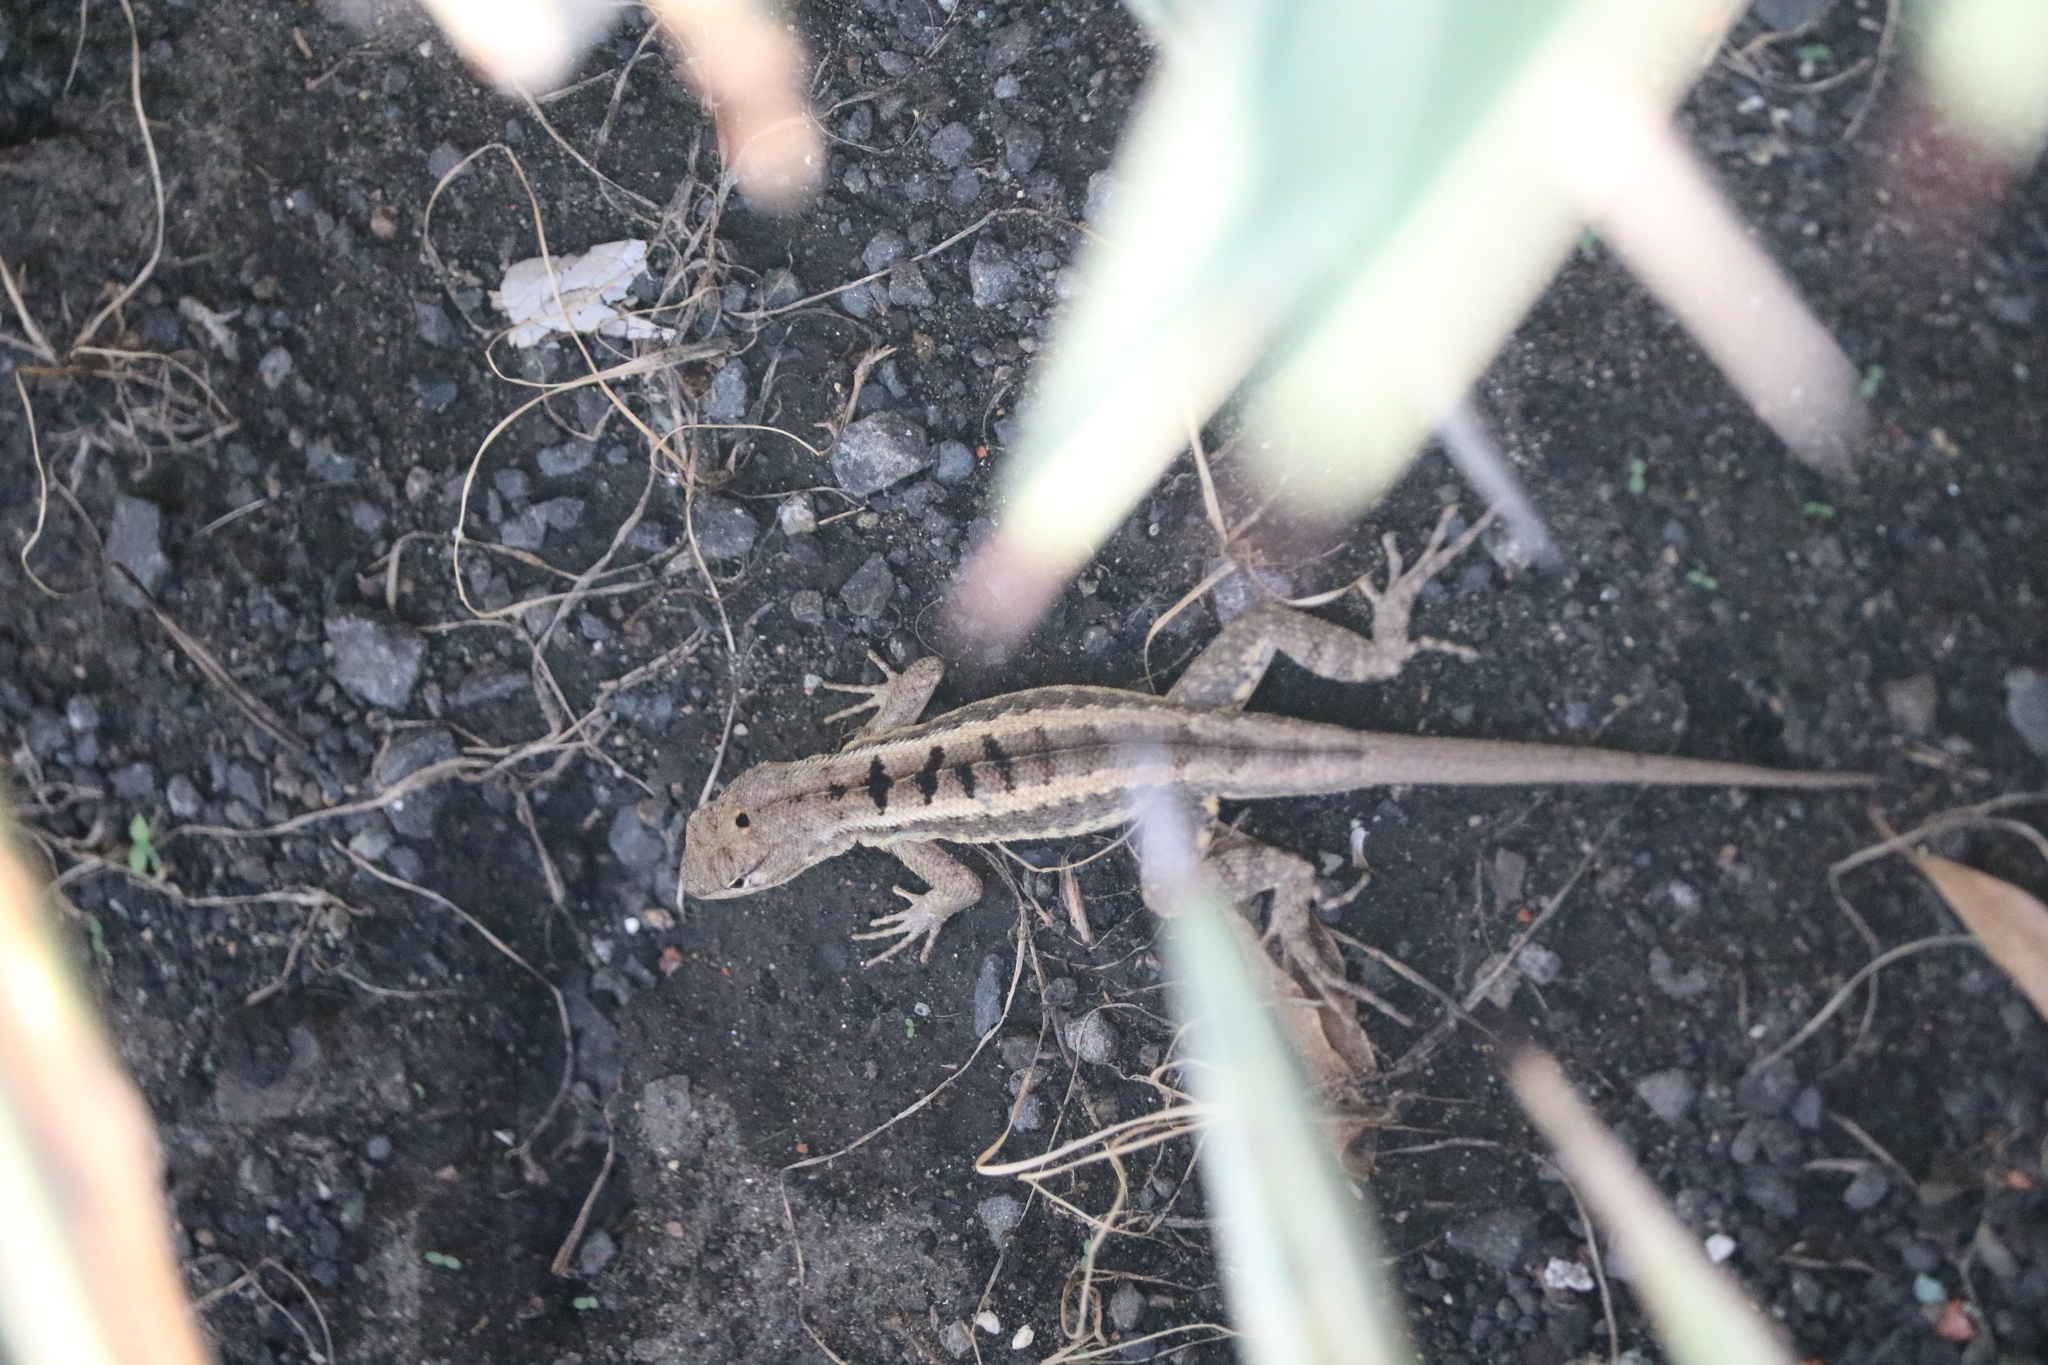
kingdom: Animalia
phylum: Chordata
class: Squamata
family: Tropiduridae
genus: Microlophus
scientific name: Microlophus occipitalis
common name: Knobbed pacific iguana
